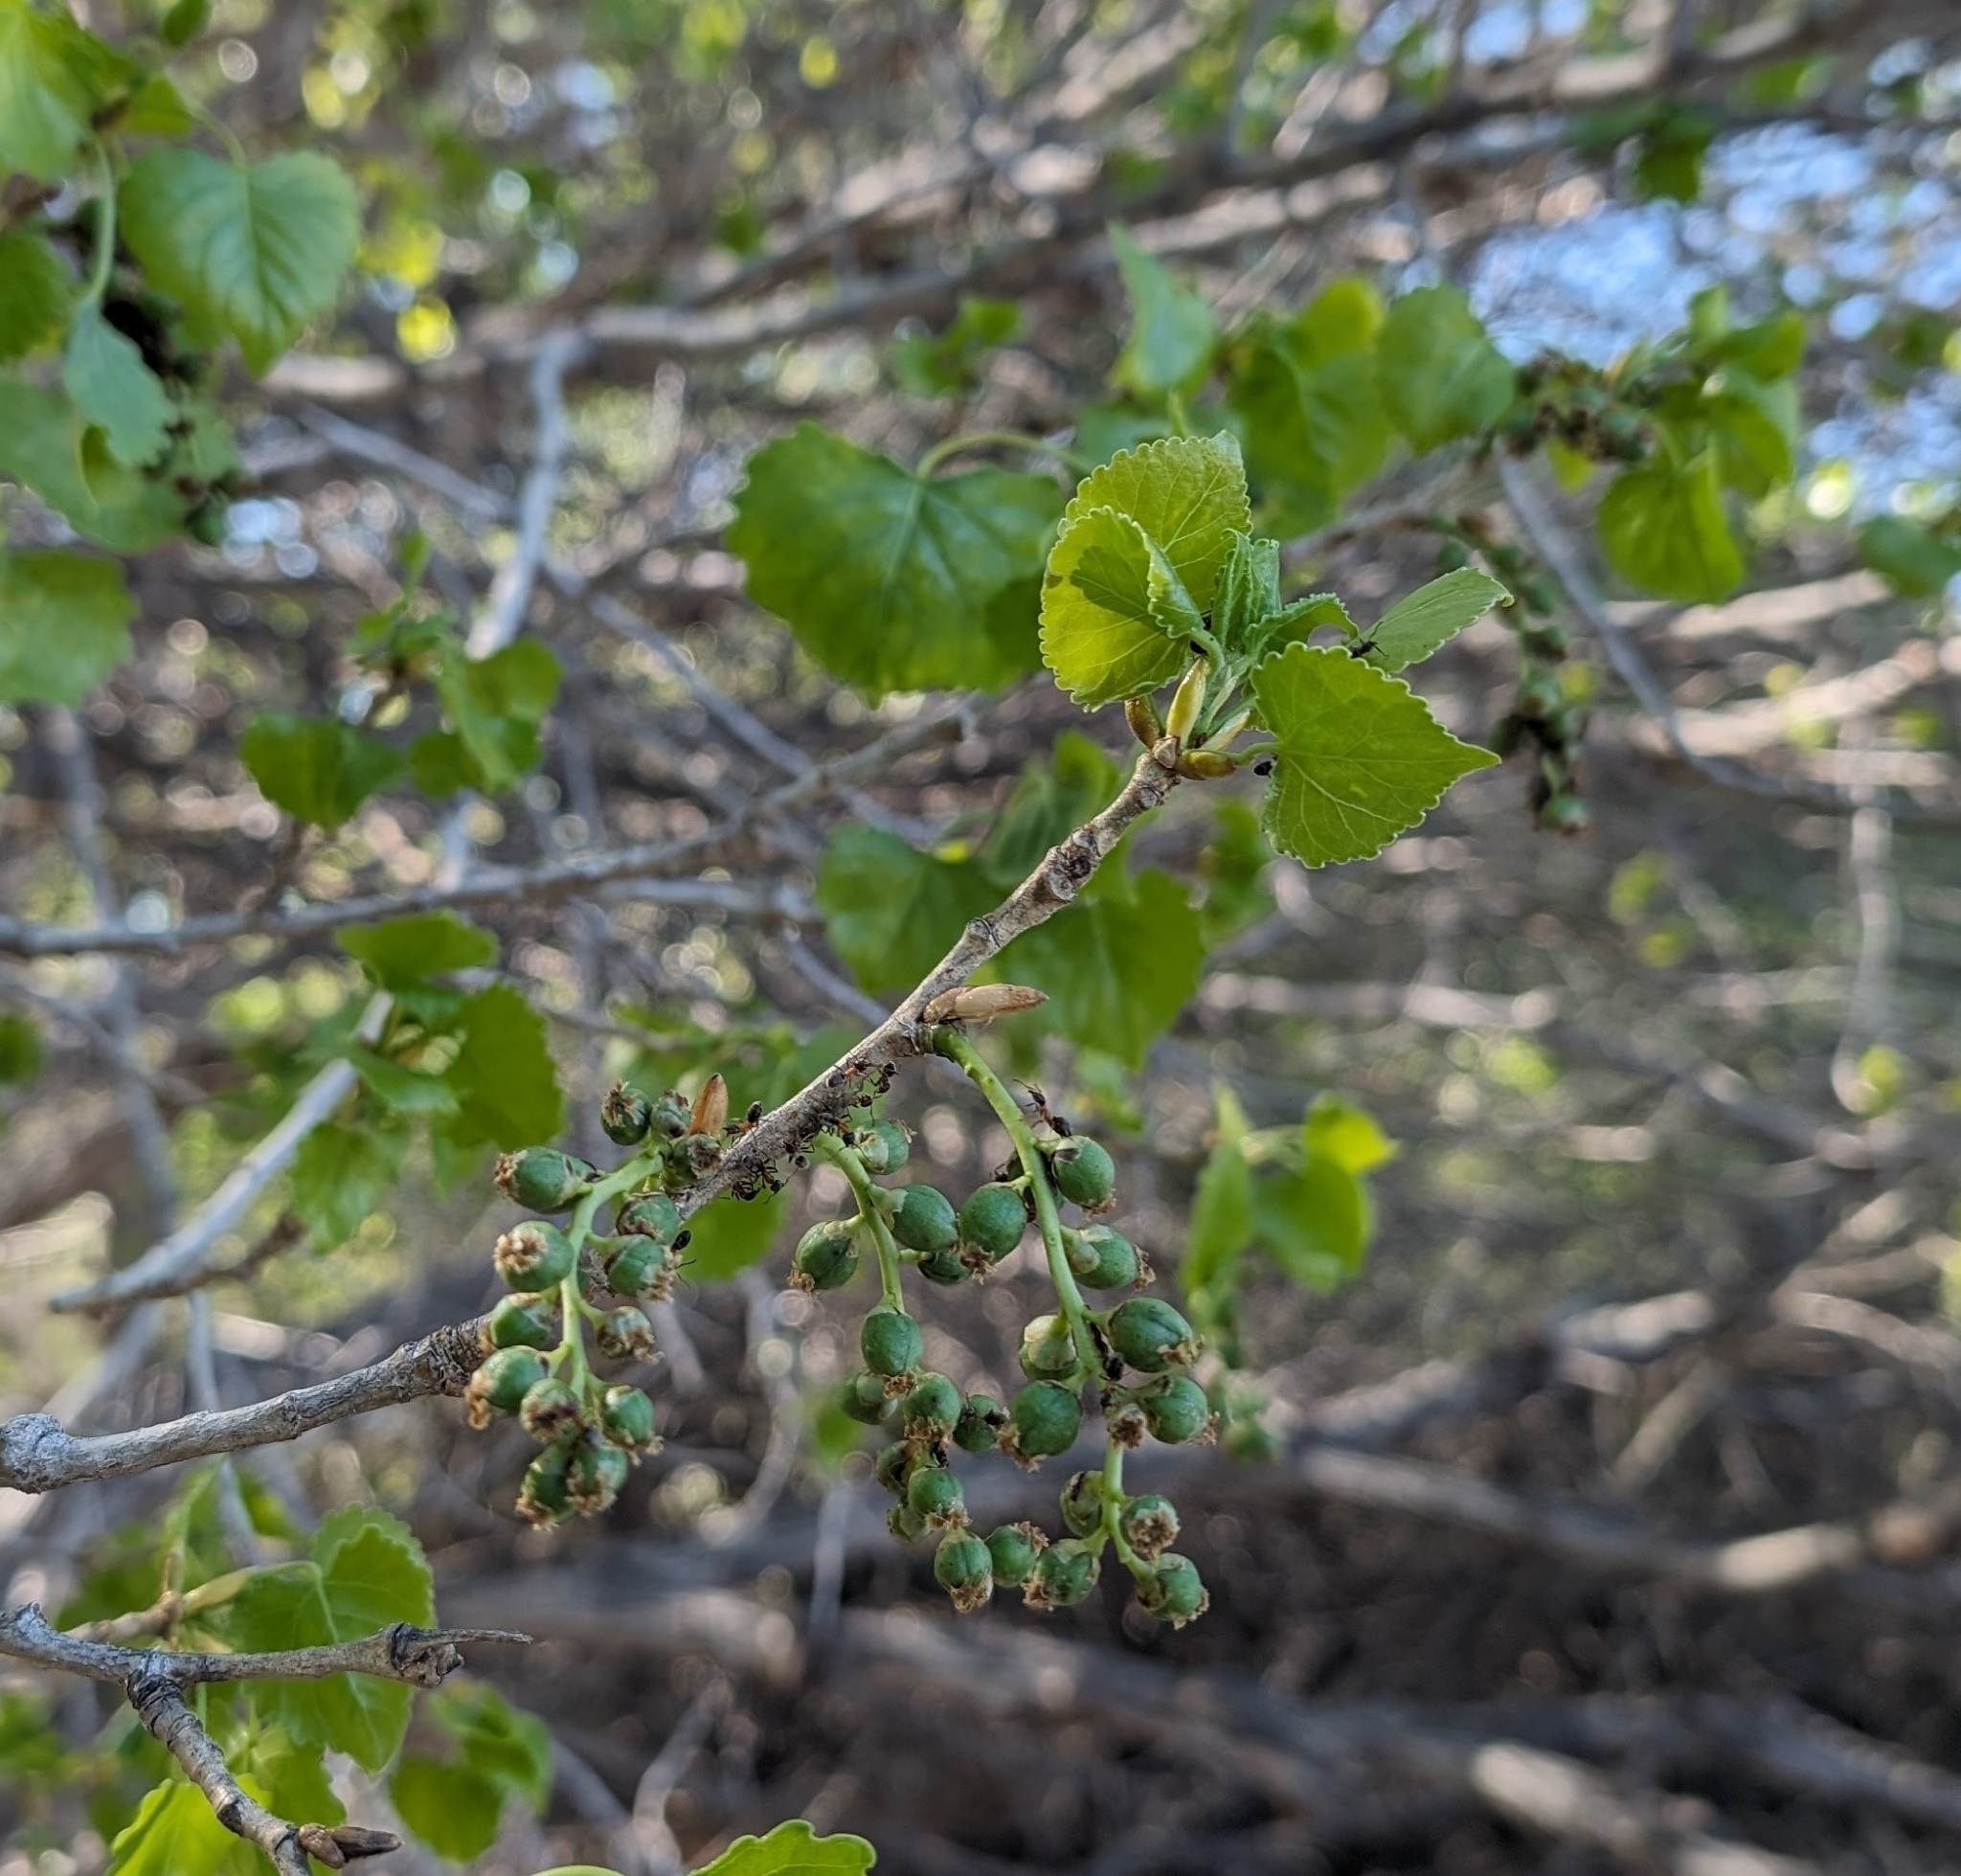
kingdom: Plantae
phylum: Tracheophyta
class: Magnoliopsida
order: Malpighiales
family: Salicaceae
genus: Populus
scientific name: Populus fremontii
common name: Fremont's cottonwood
